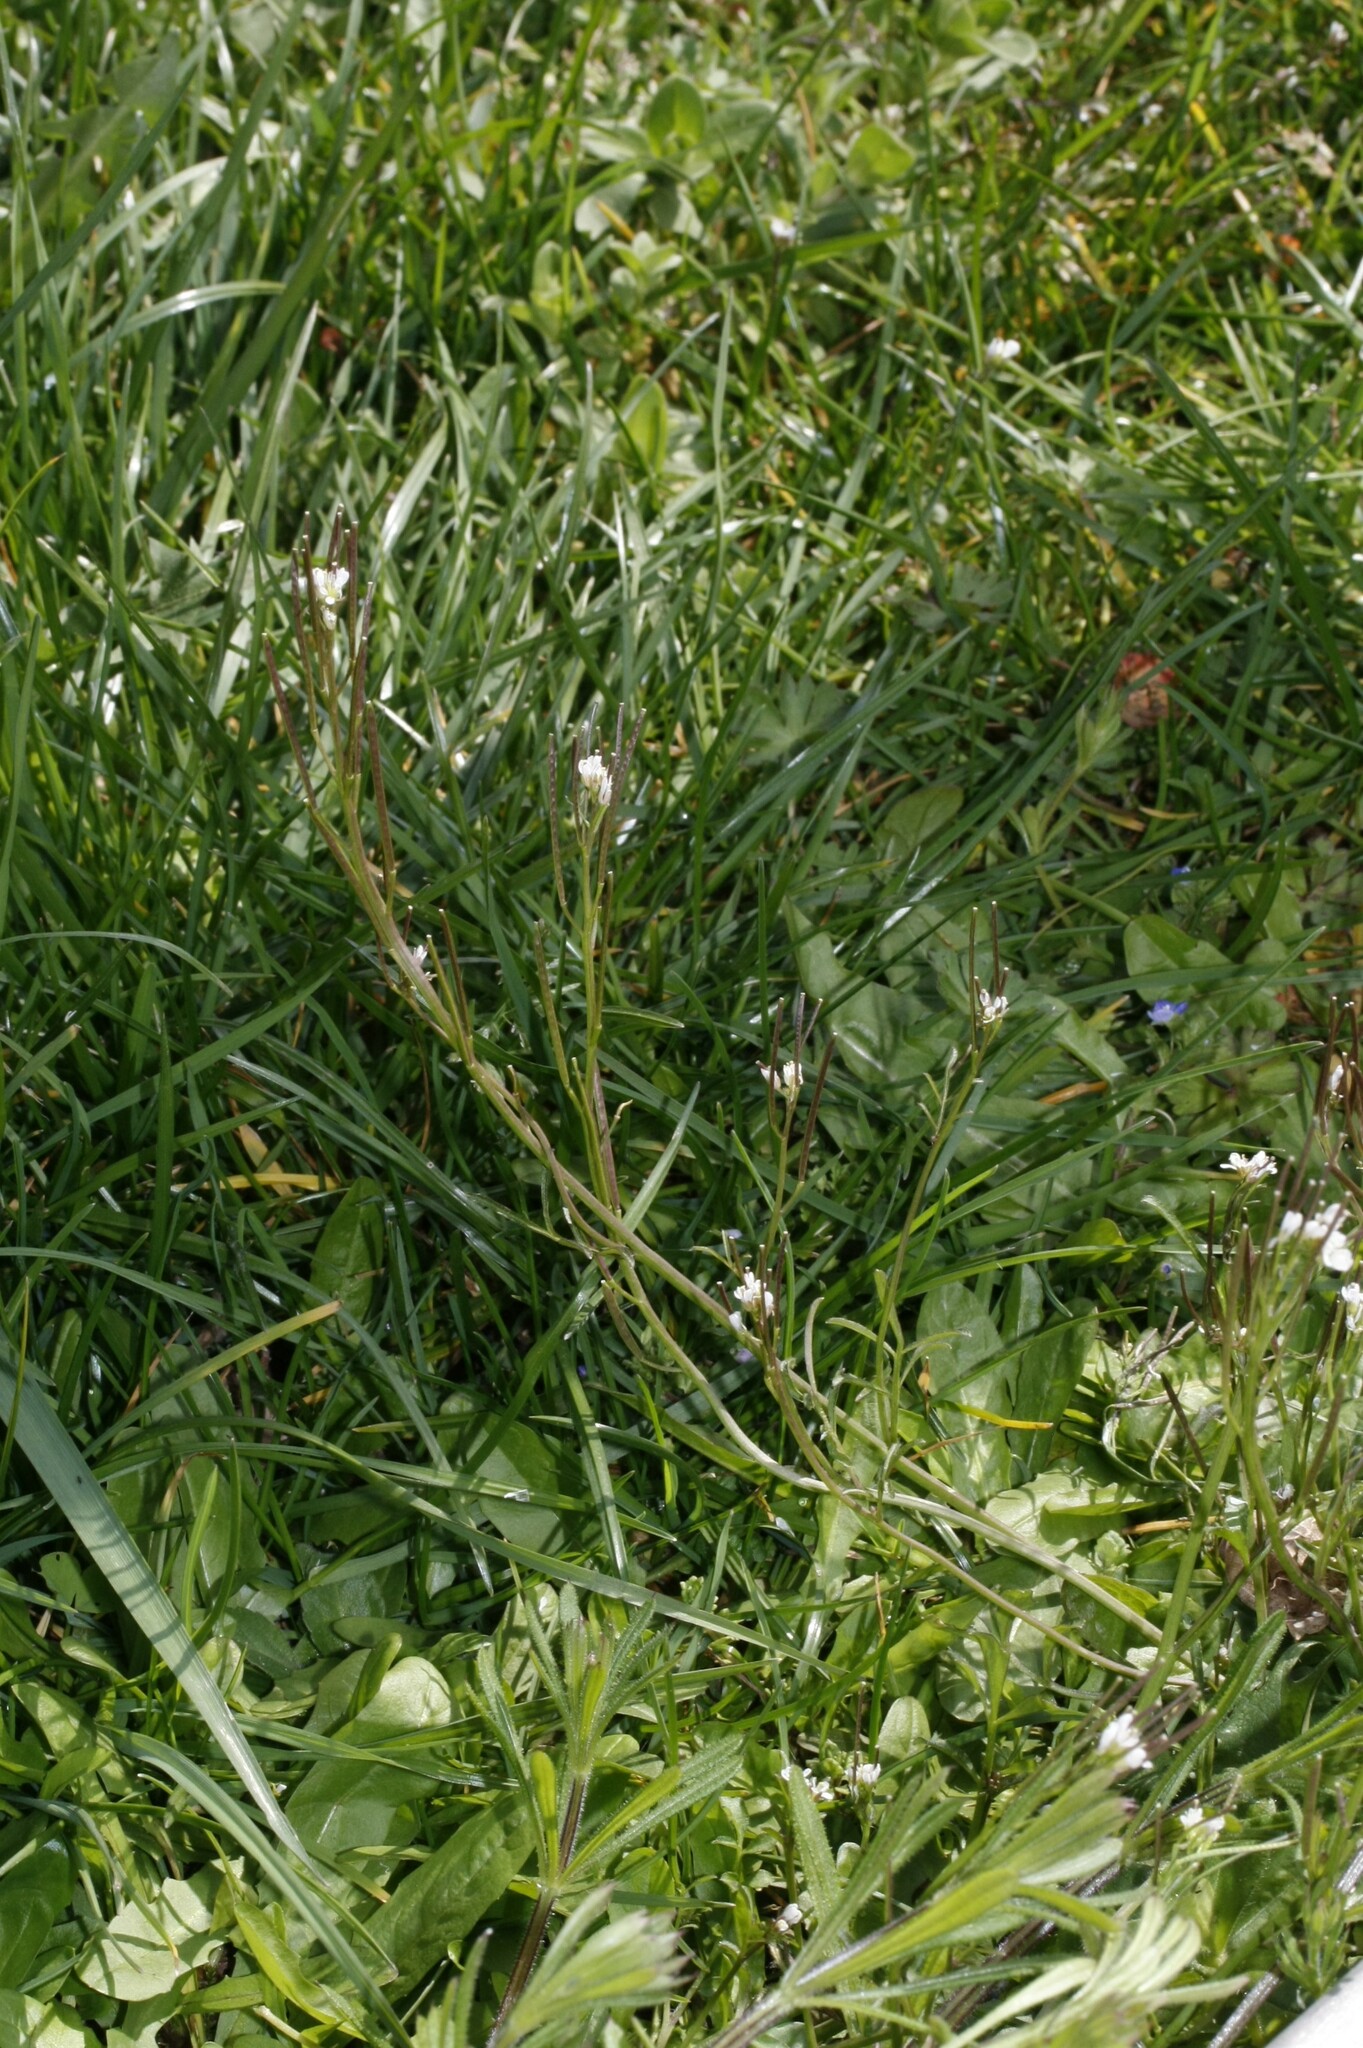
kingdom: Plantae
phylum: Tracheophyta
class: Magnoliopsida
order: Brassicales
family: Brassicaceae
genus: Cardamine
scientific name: Cardamine hirsuta
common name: Hairy bittercress
